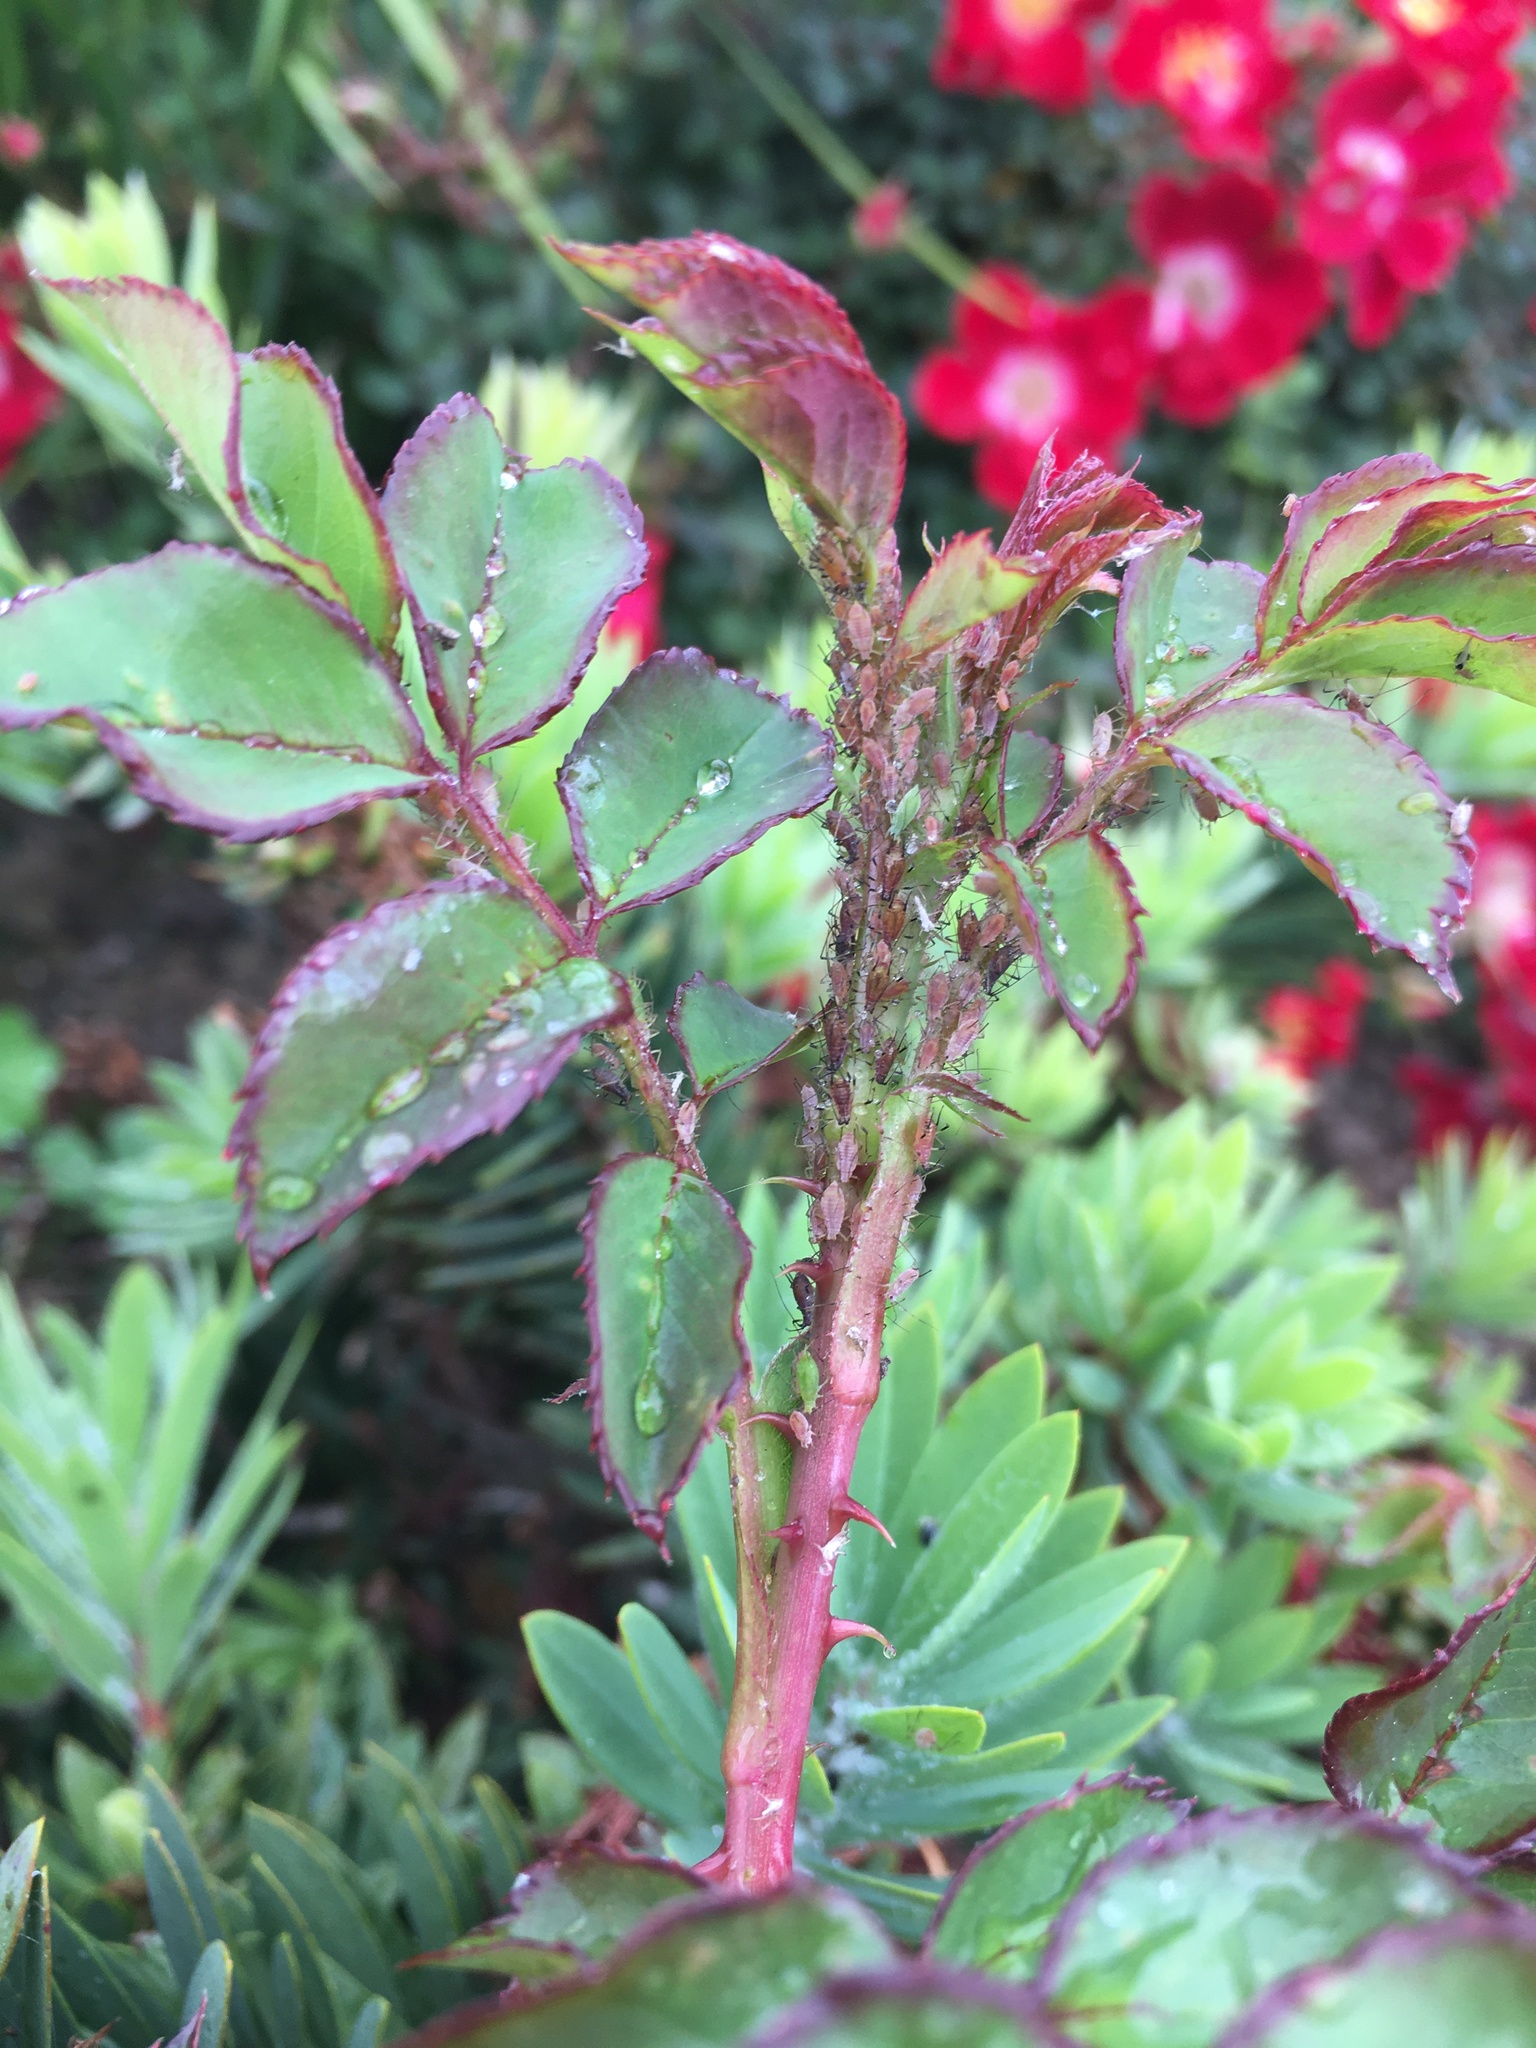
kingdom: Animalia
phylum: Arthropoda
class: Insecta
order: Hemiptera
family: Aphididae
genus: Macrosiphum
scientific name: Macrosiphum rosae
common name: Rose aphid
